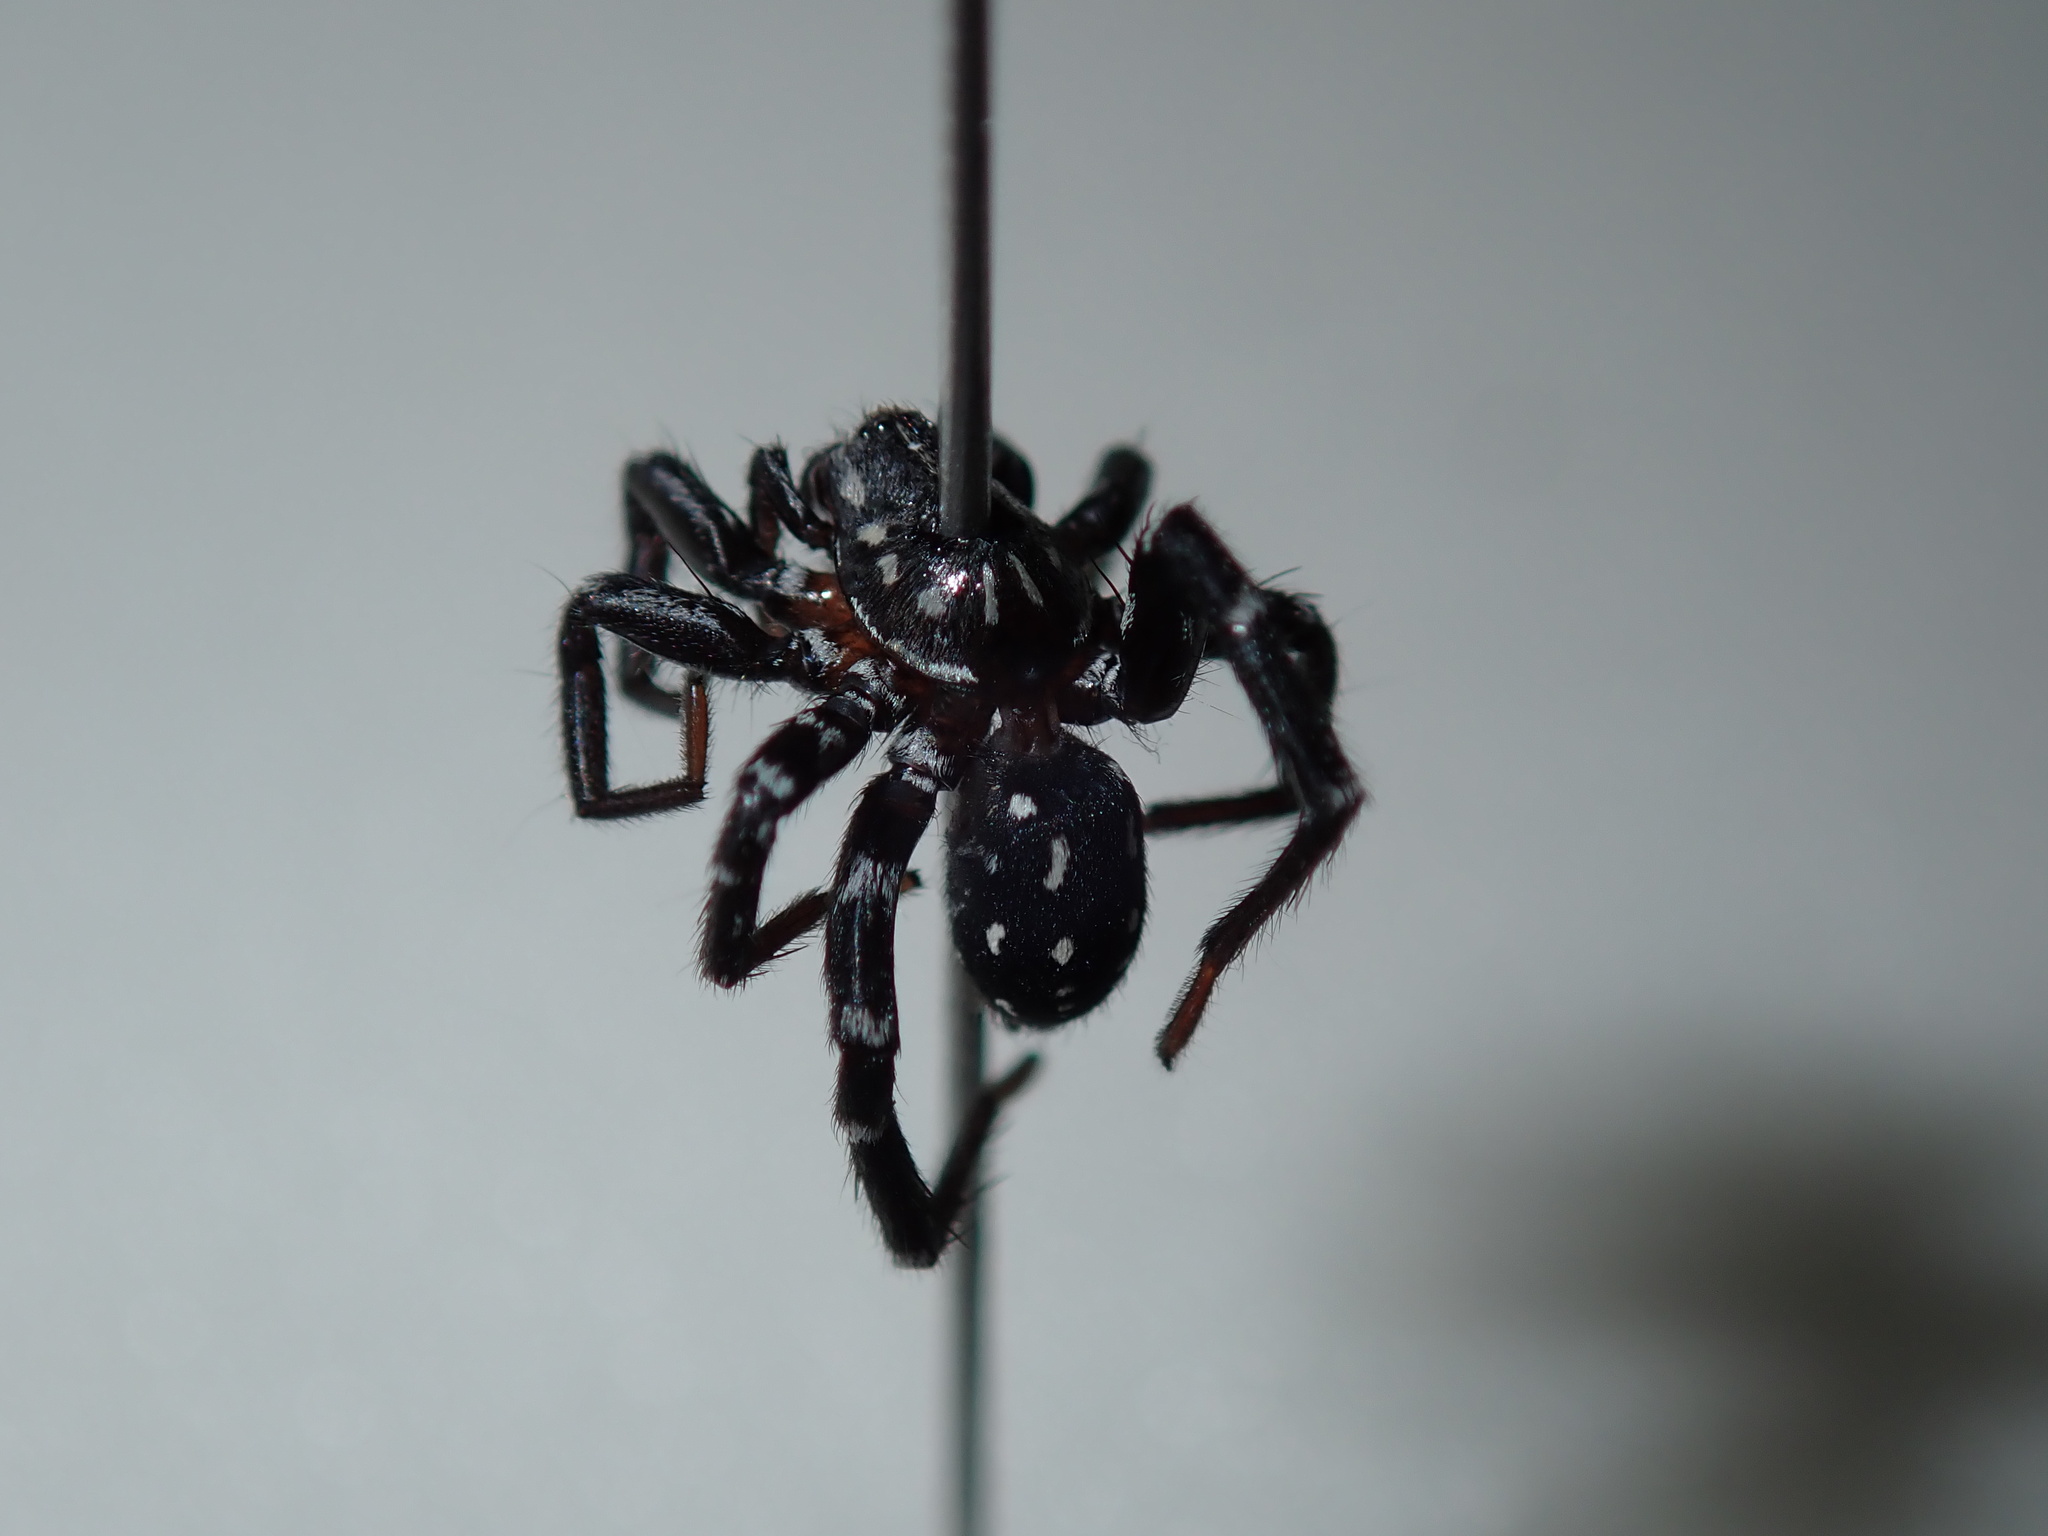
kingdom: Animalia
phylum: Arthropoda
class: Arachnida
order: Araneae
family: Corinnidae
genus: Nyssus
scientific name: Nyssus albopunctatus
